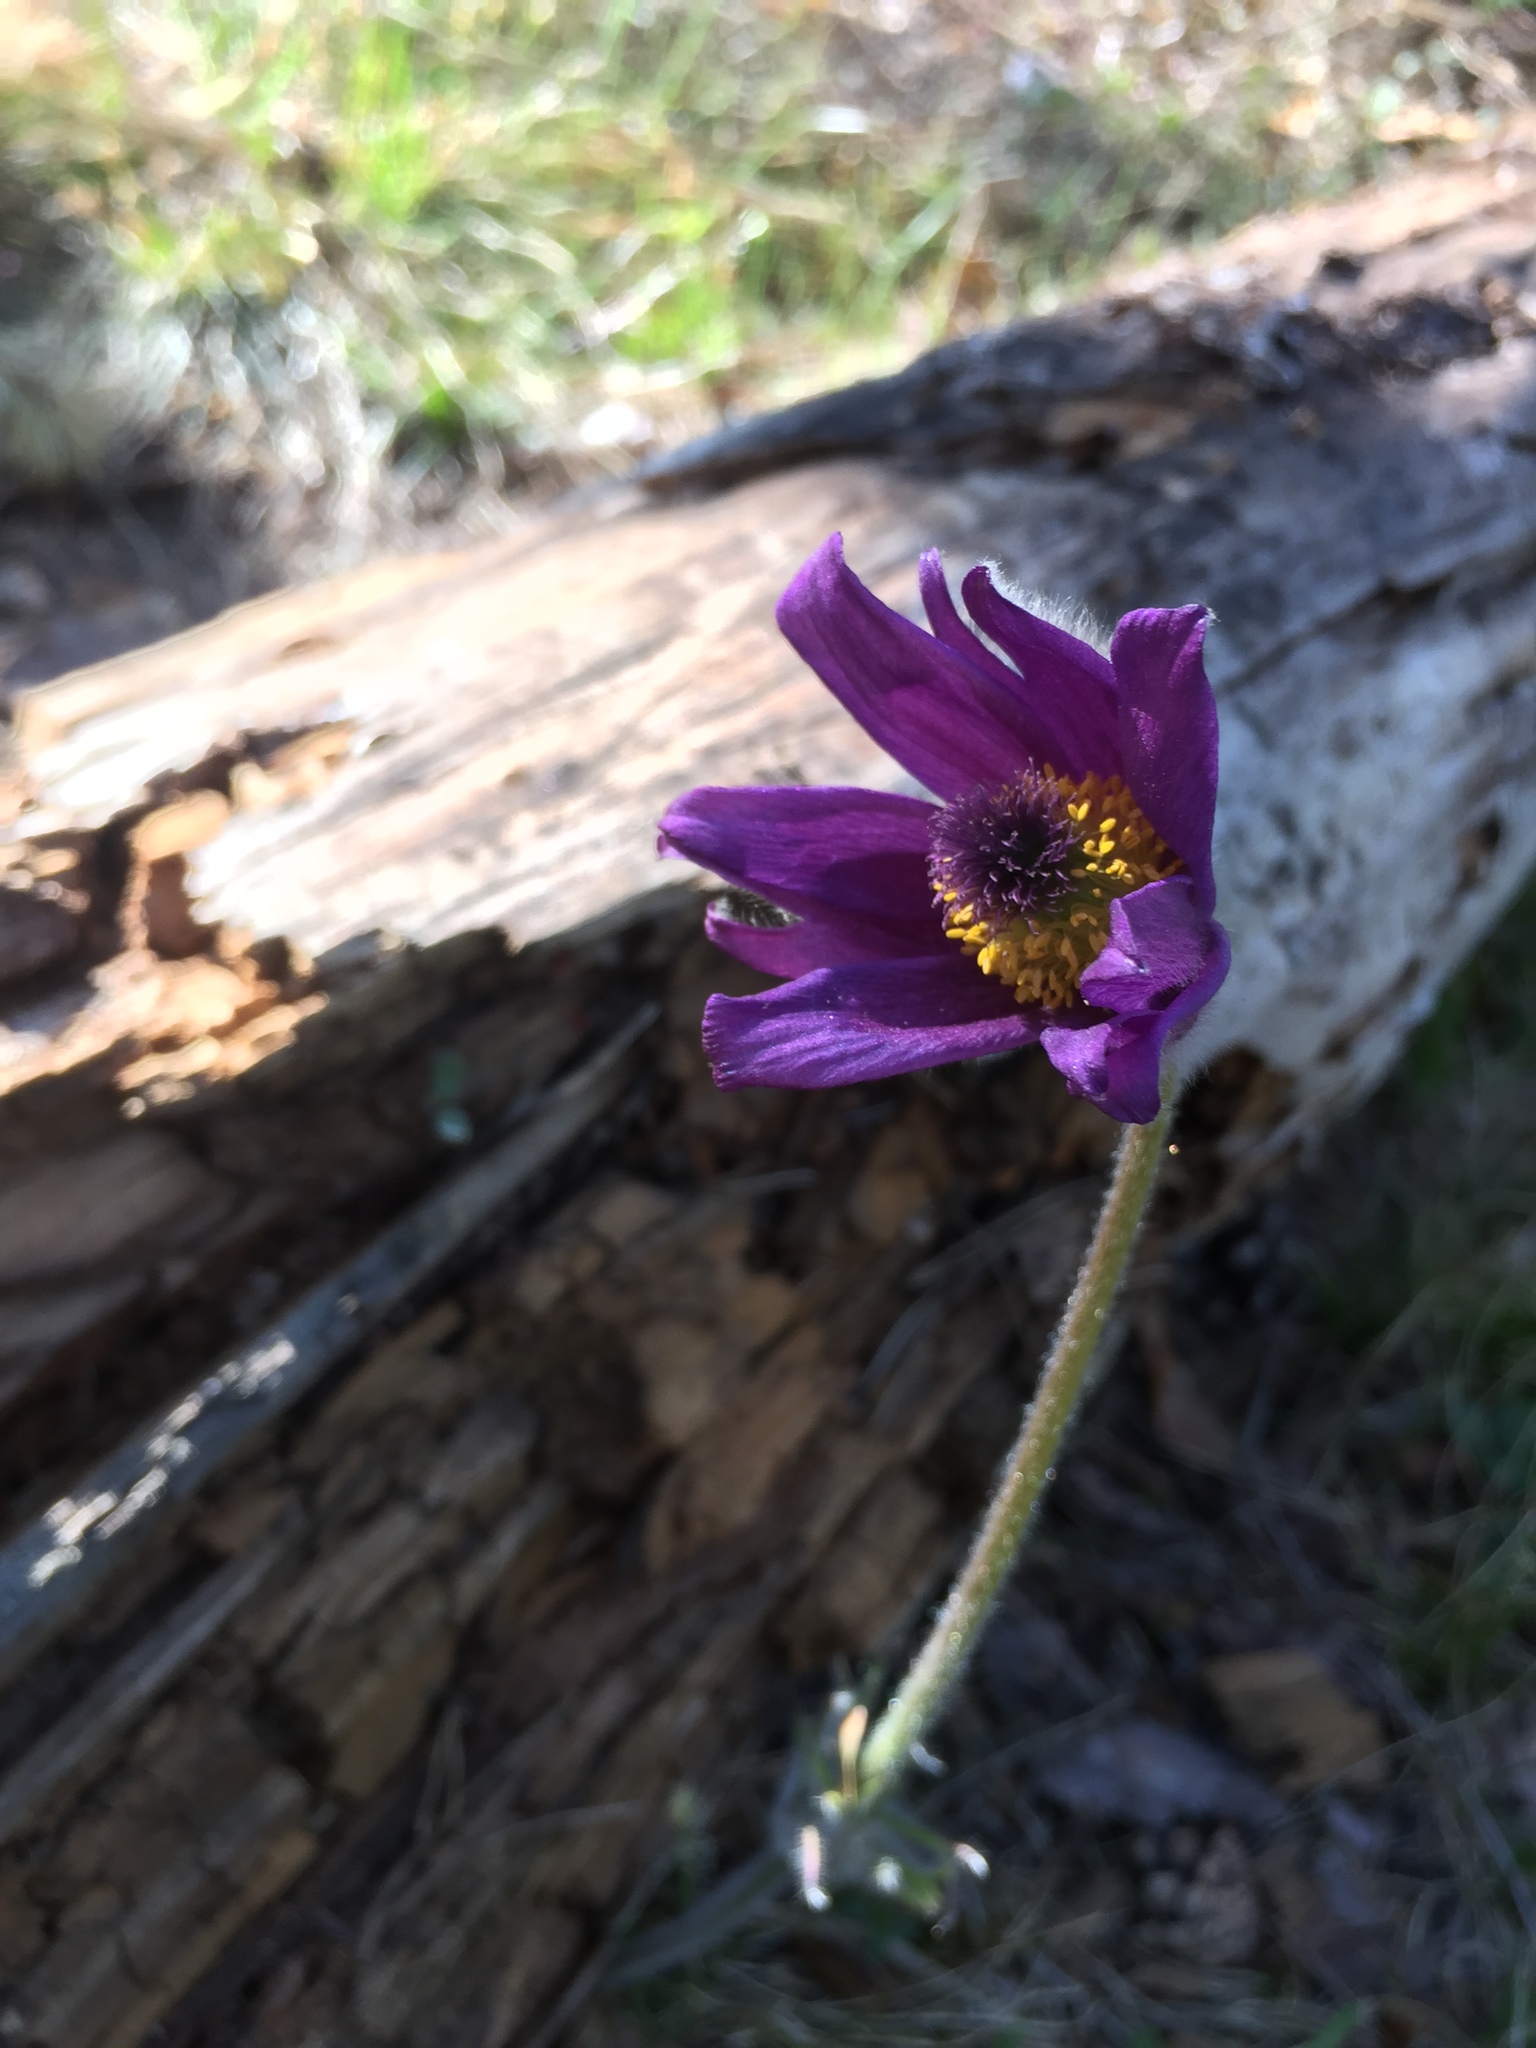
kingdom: Plantae
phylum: Tracheophyta
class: Magnoliopsida
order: Ranunculales
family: Ranunculaceae
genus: Pulsatilla
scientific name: Pulsatilla montana
